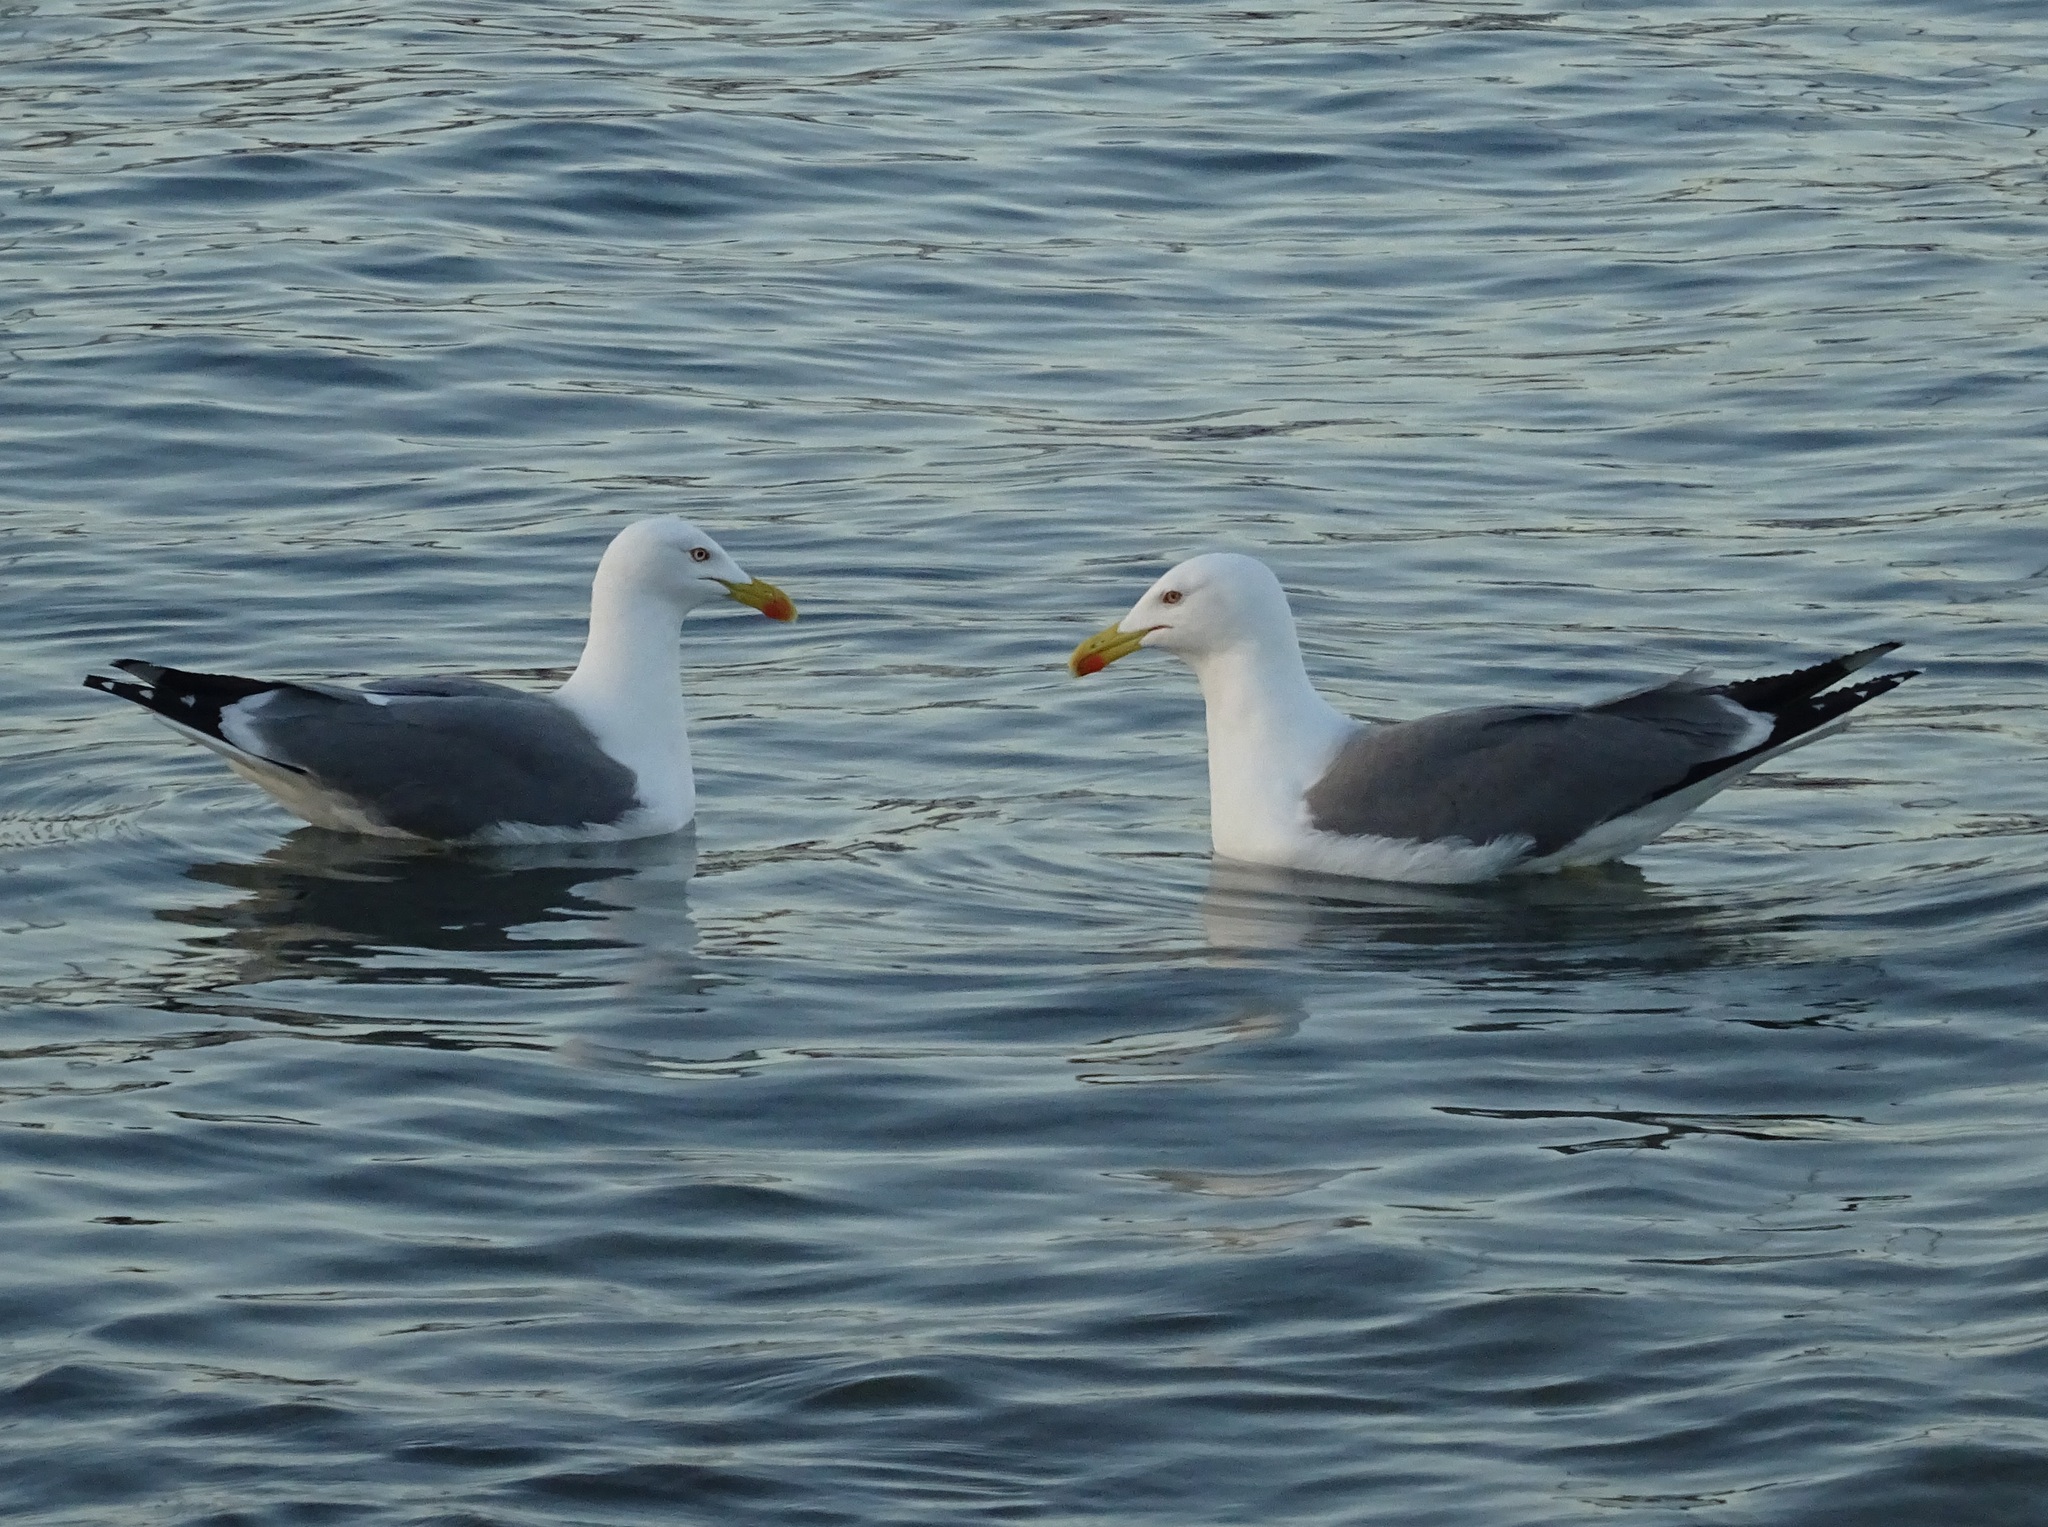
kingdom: Animalia
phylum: Chordata
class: Aves
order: Charadriiformes
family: Laridae
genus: Larus
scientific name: Larus michahellis
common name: Yellow-legged gull
